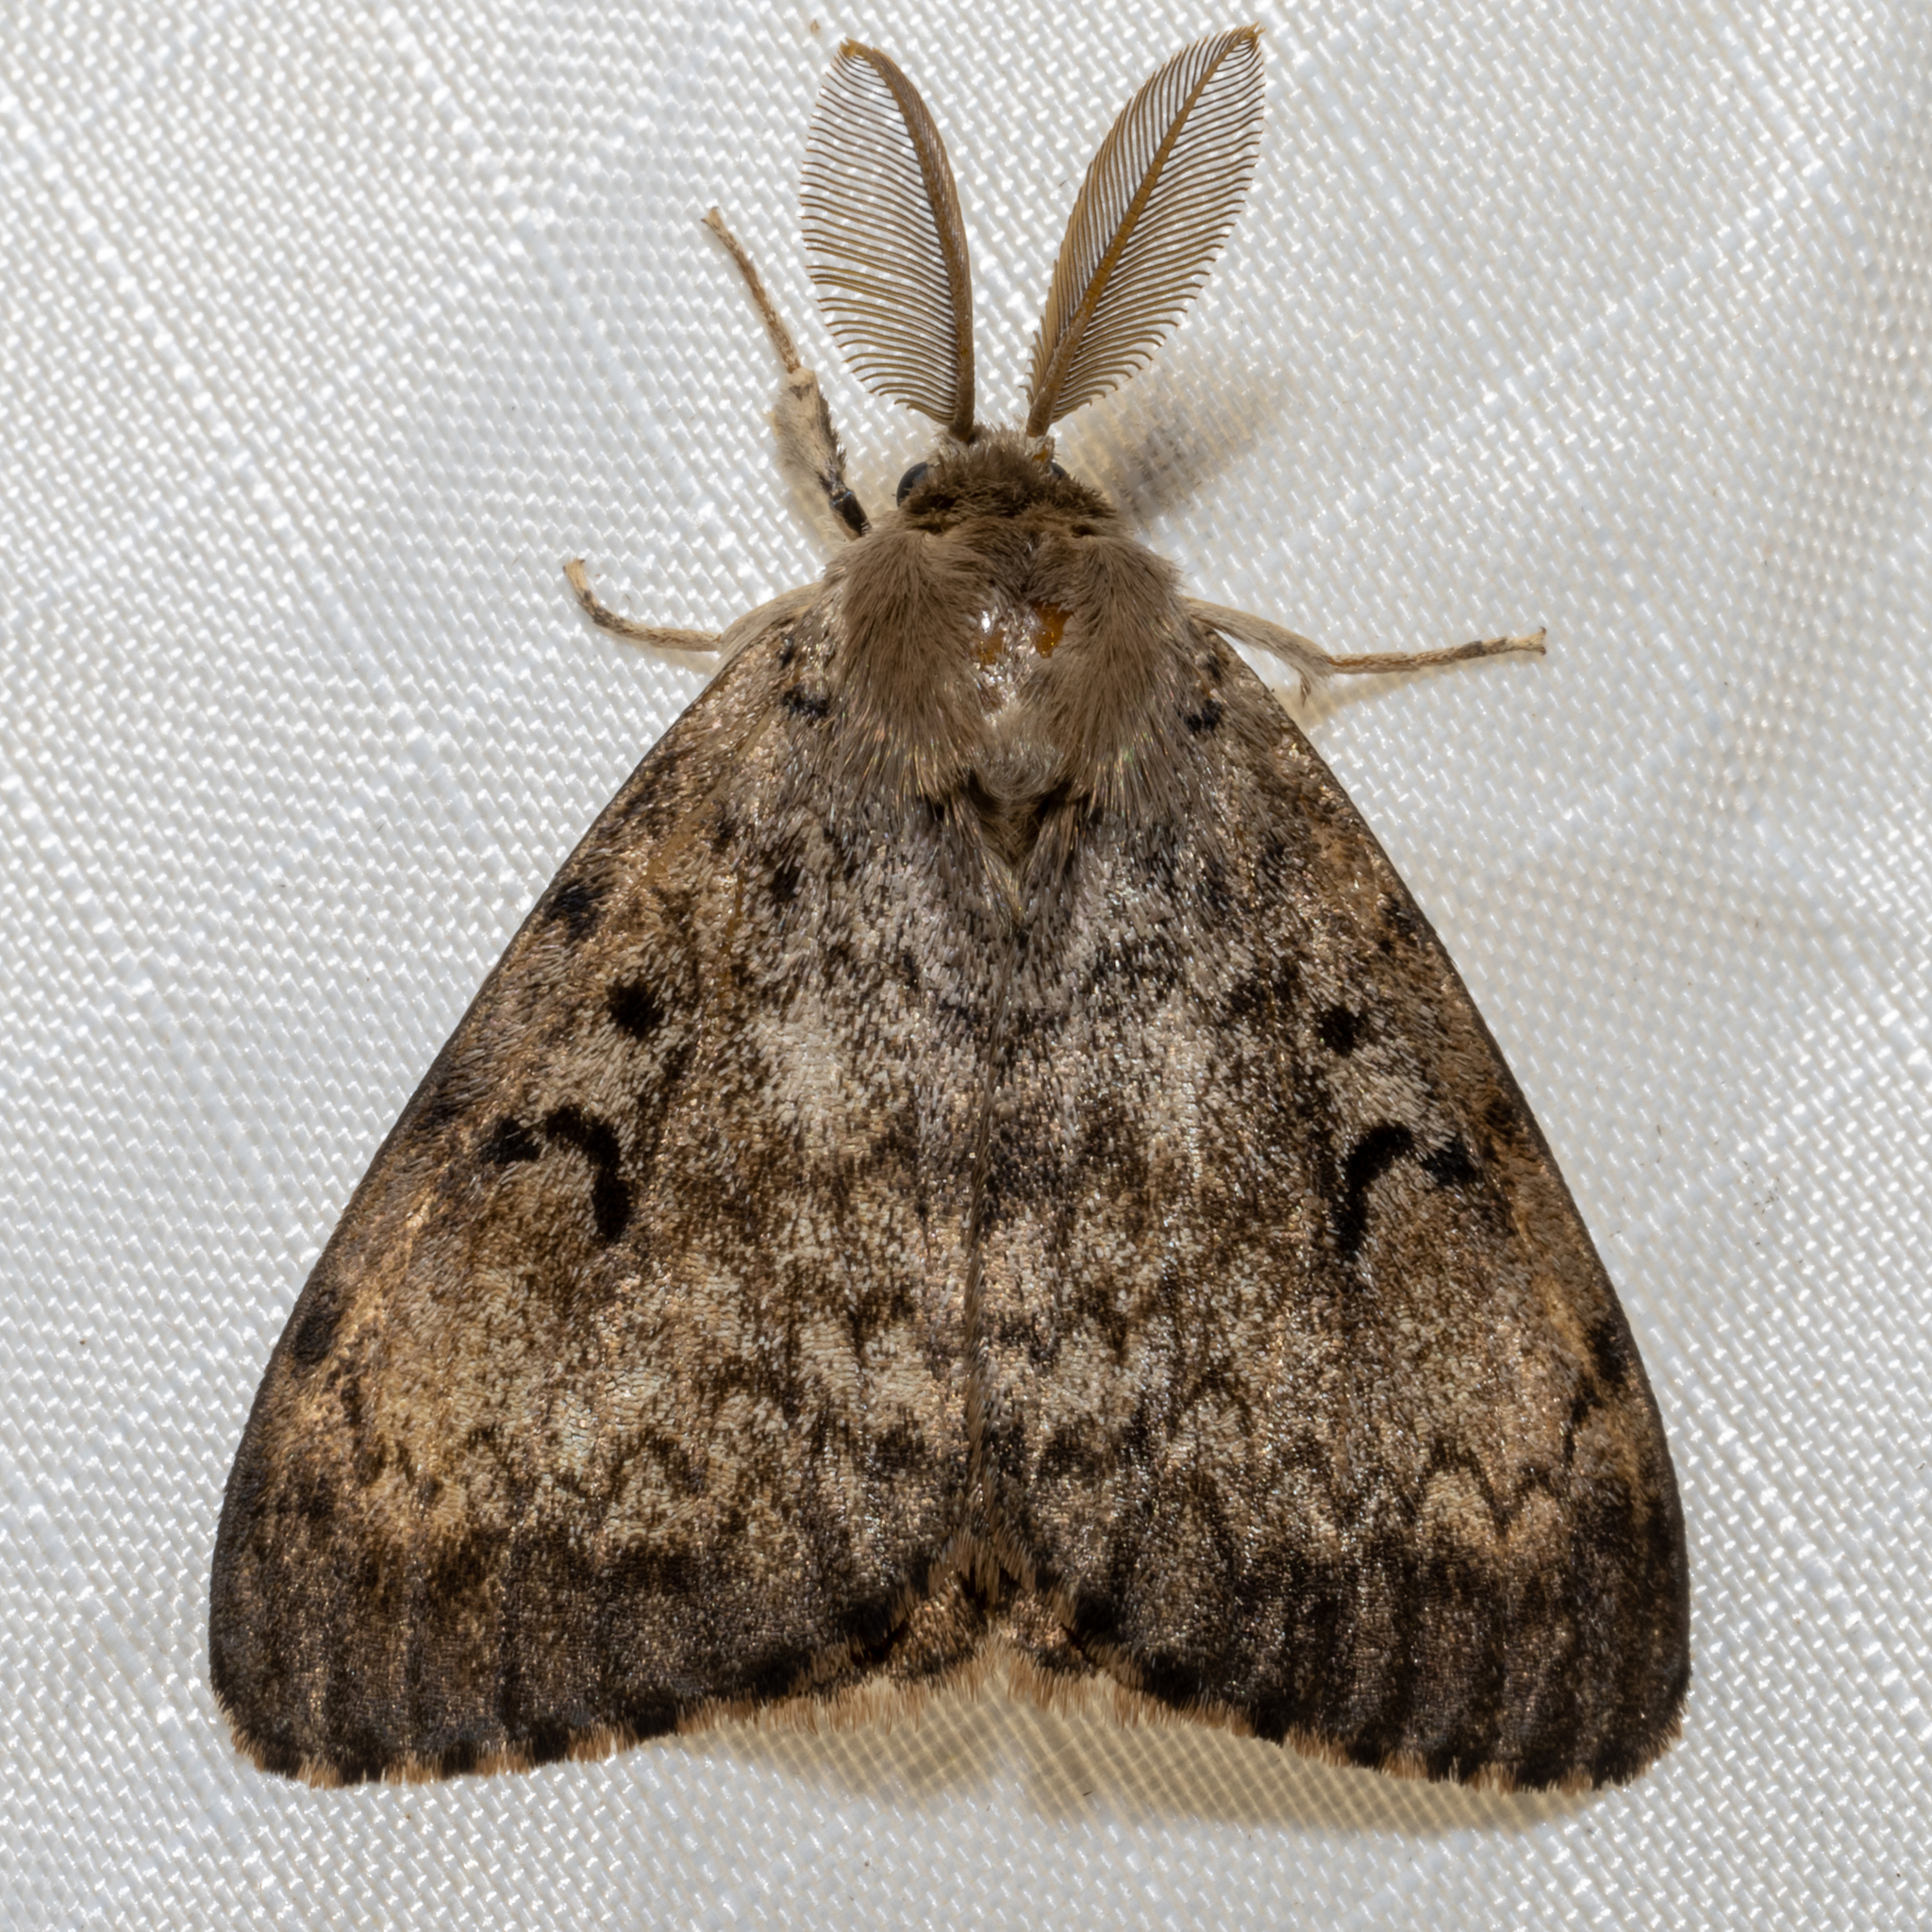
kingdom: Animalia
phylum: Arthropoda
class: Insecta
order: Lepidoptera
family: Erebidae
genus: Lymantria
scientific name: Lymantria dispar
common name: Gypsy moth
